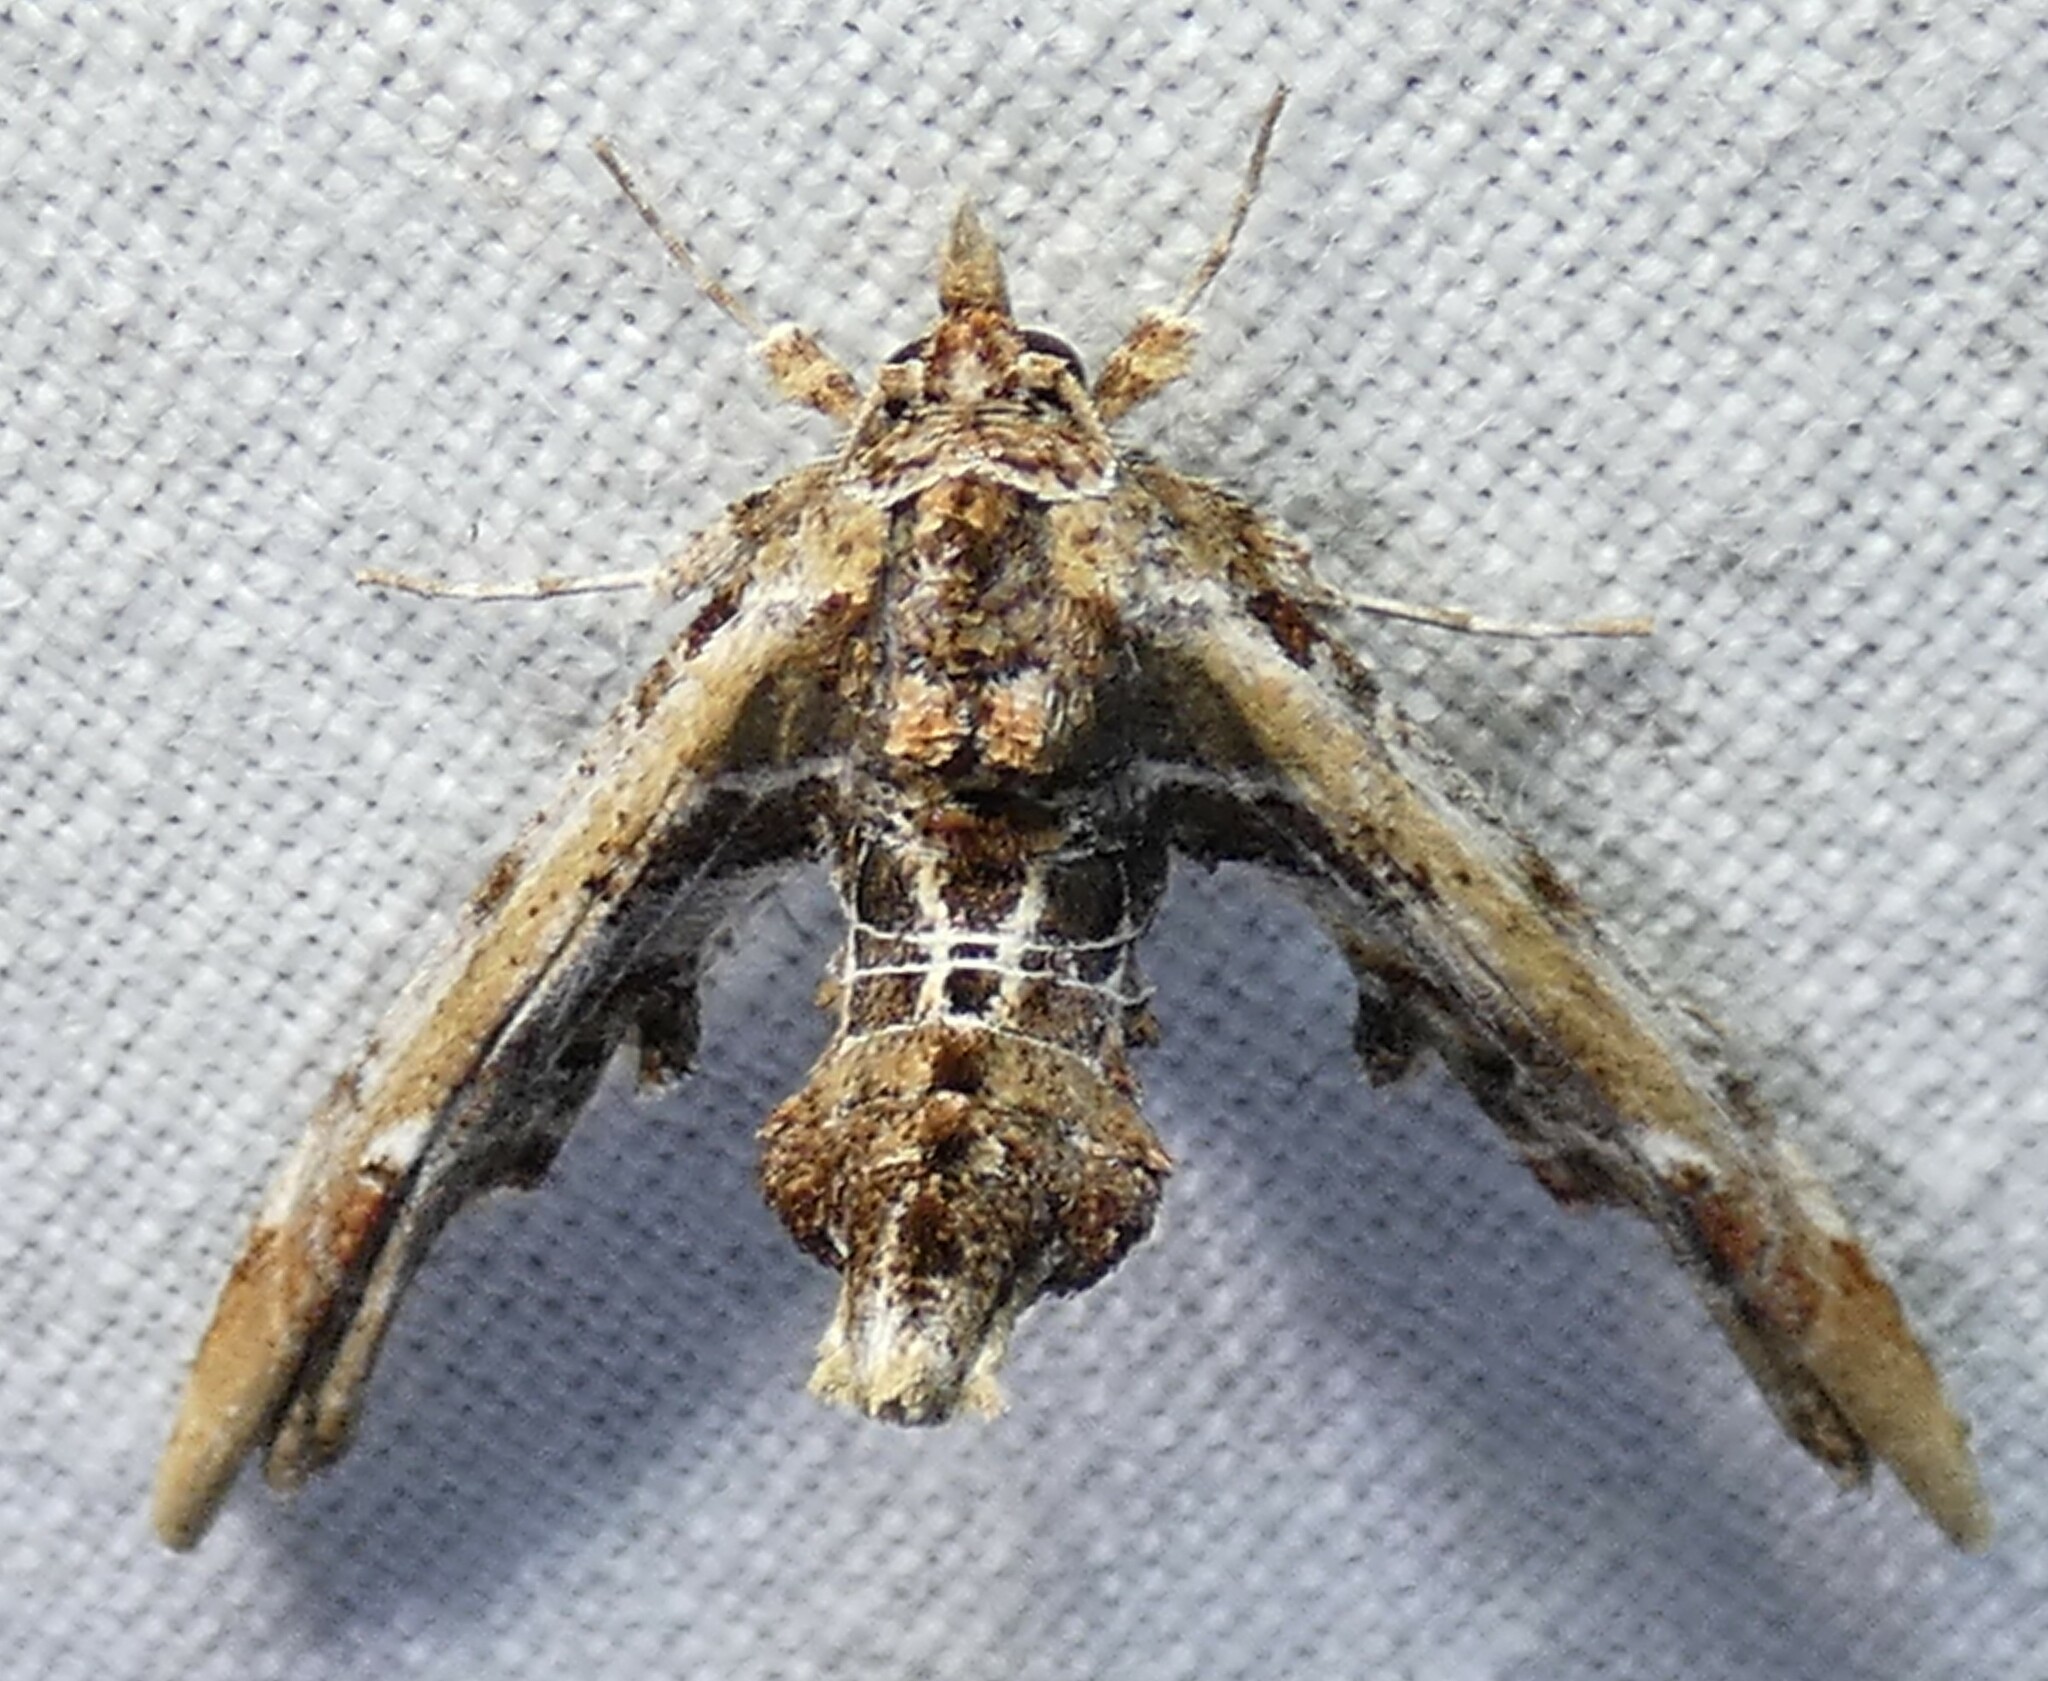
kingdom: Animalia
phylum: Arthropoda
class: Insecta
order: Lepidoptera
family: Euteliidae
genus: Marathyssa
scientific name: Marathyssa basalis
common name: Light marathyssa moth
